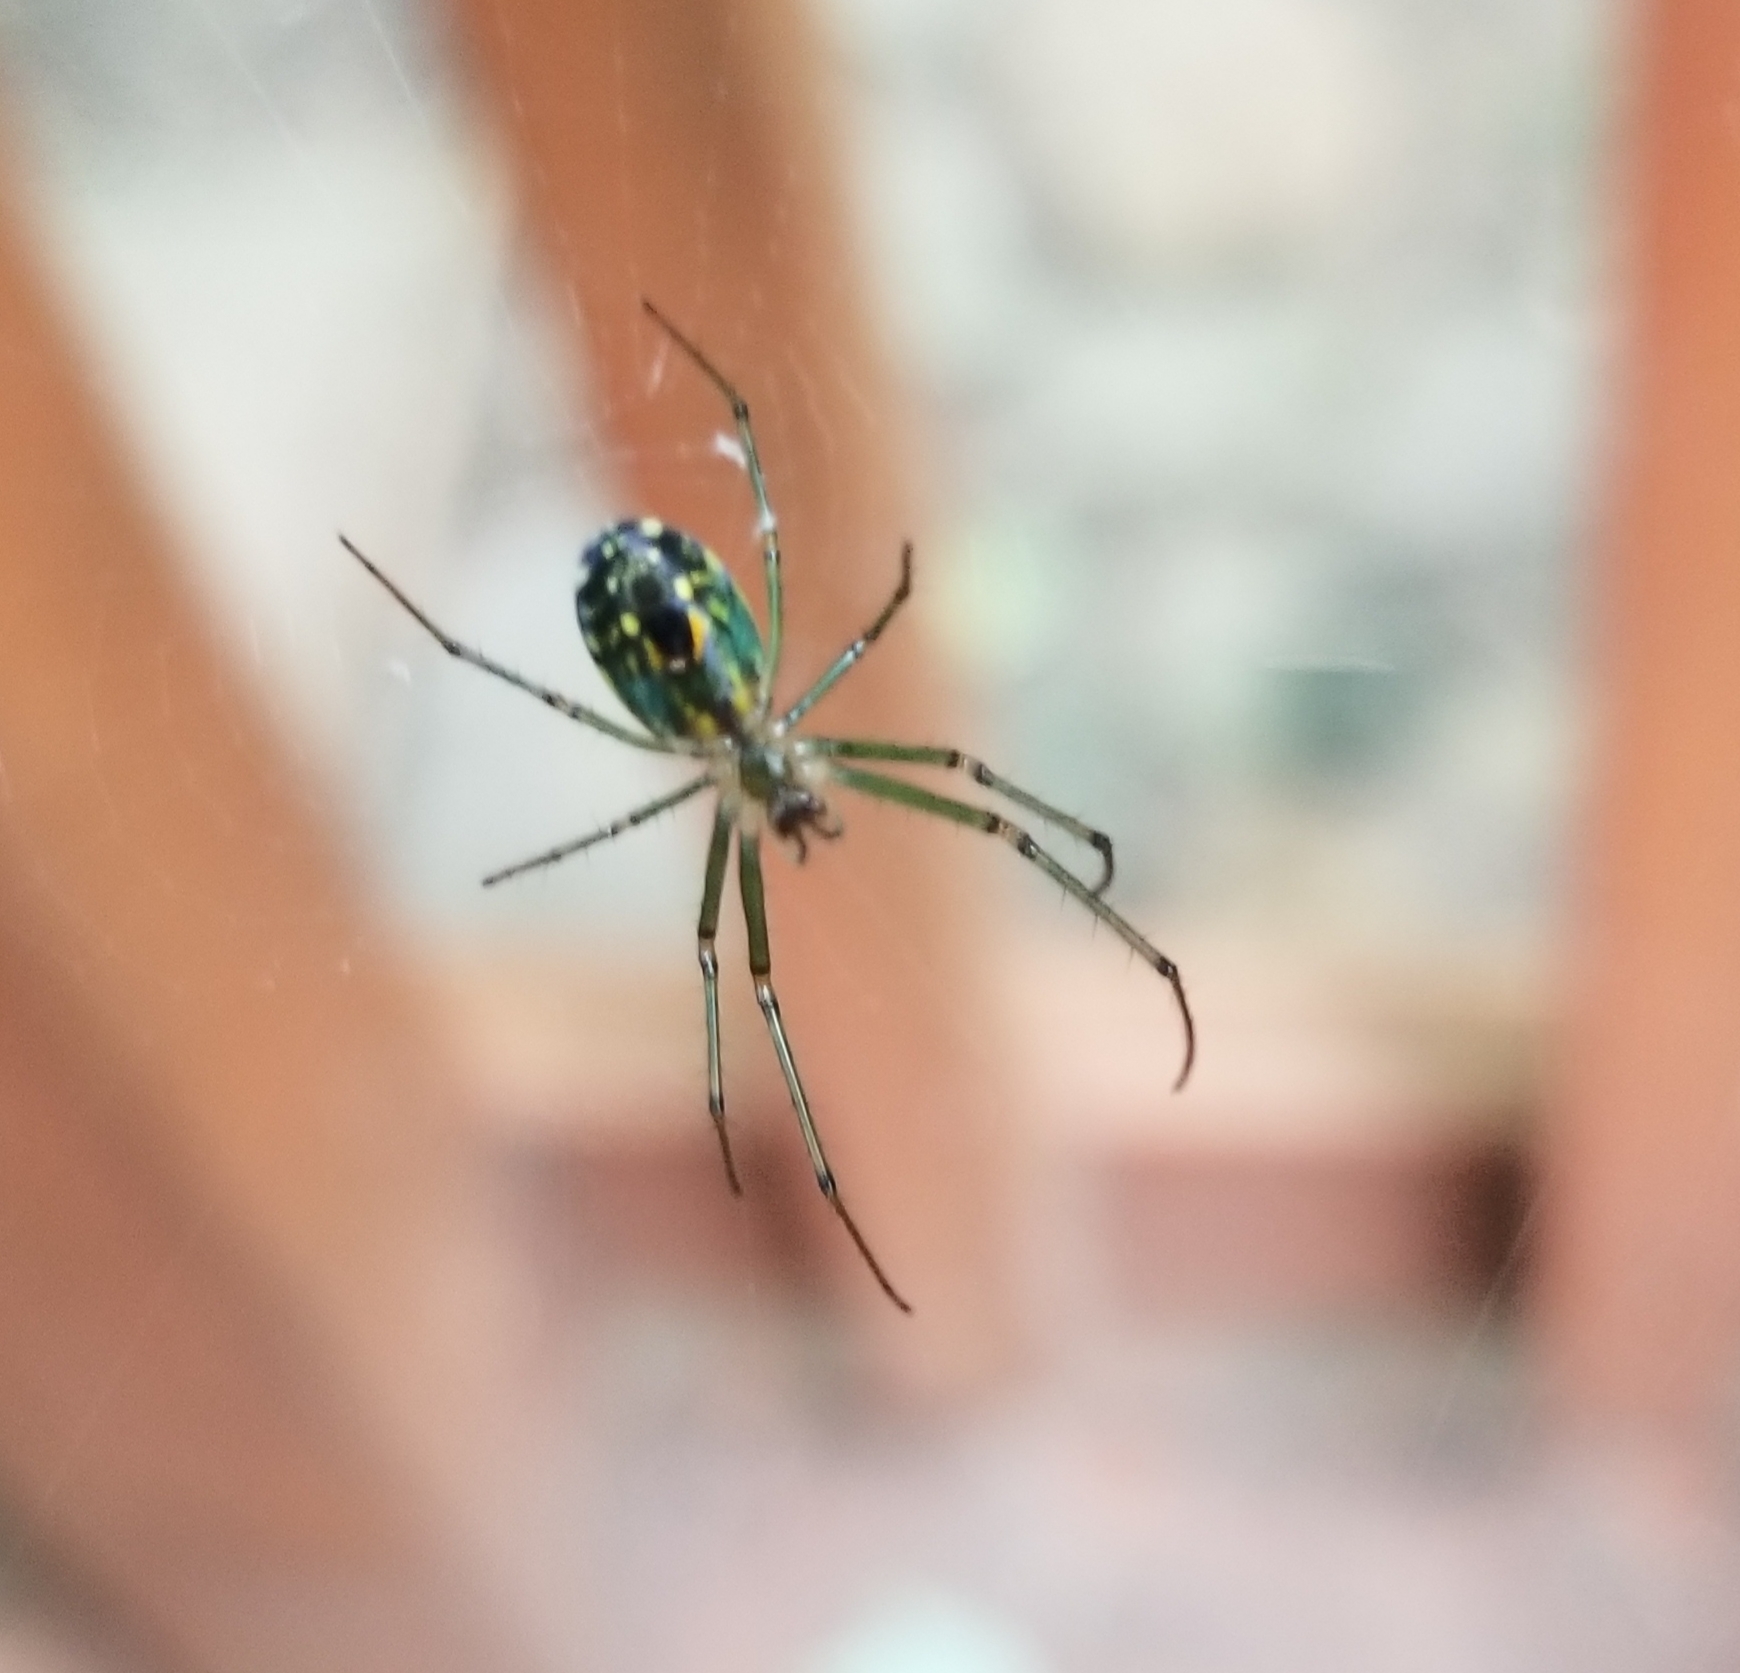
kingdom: Animalia
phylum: Arthropoda
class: Arachnida
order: Araneae
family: Tetragnathidae
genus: Leucauge
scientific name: Leucauge venusta
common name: Longjawed orb weavers
